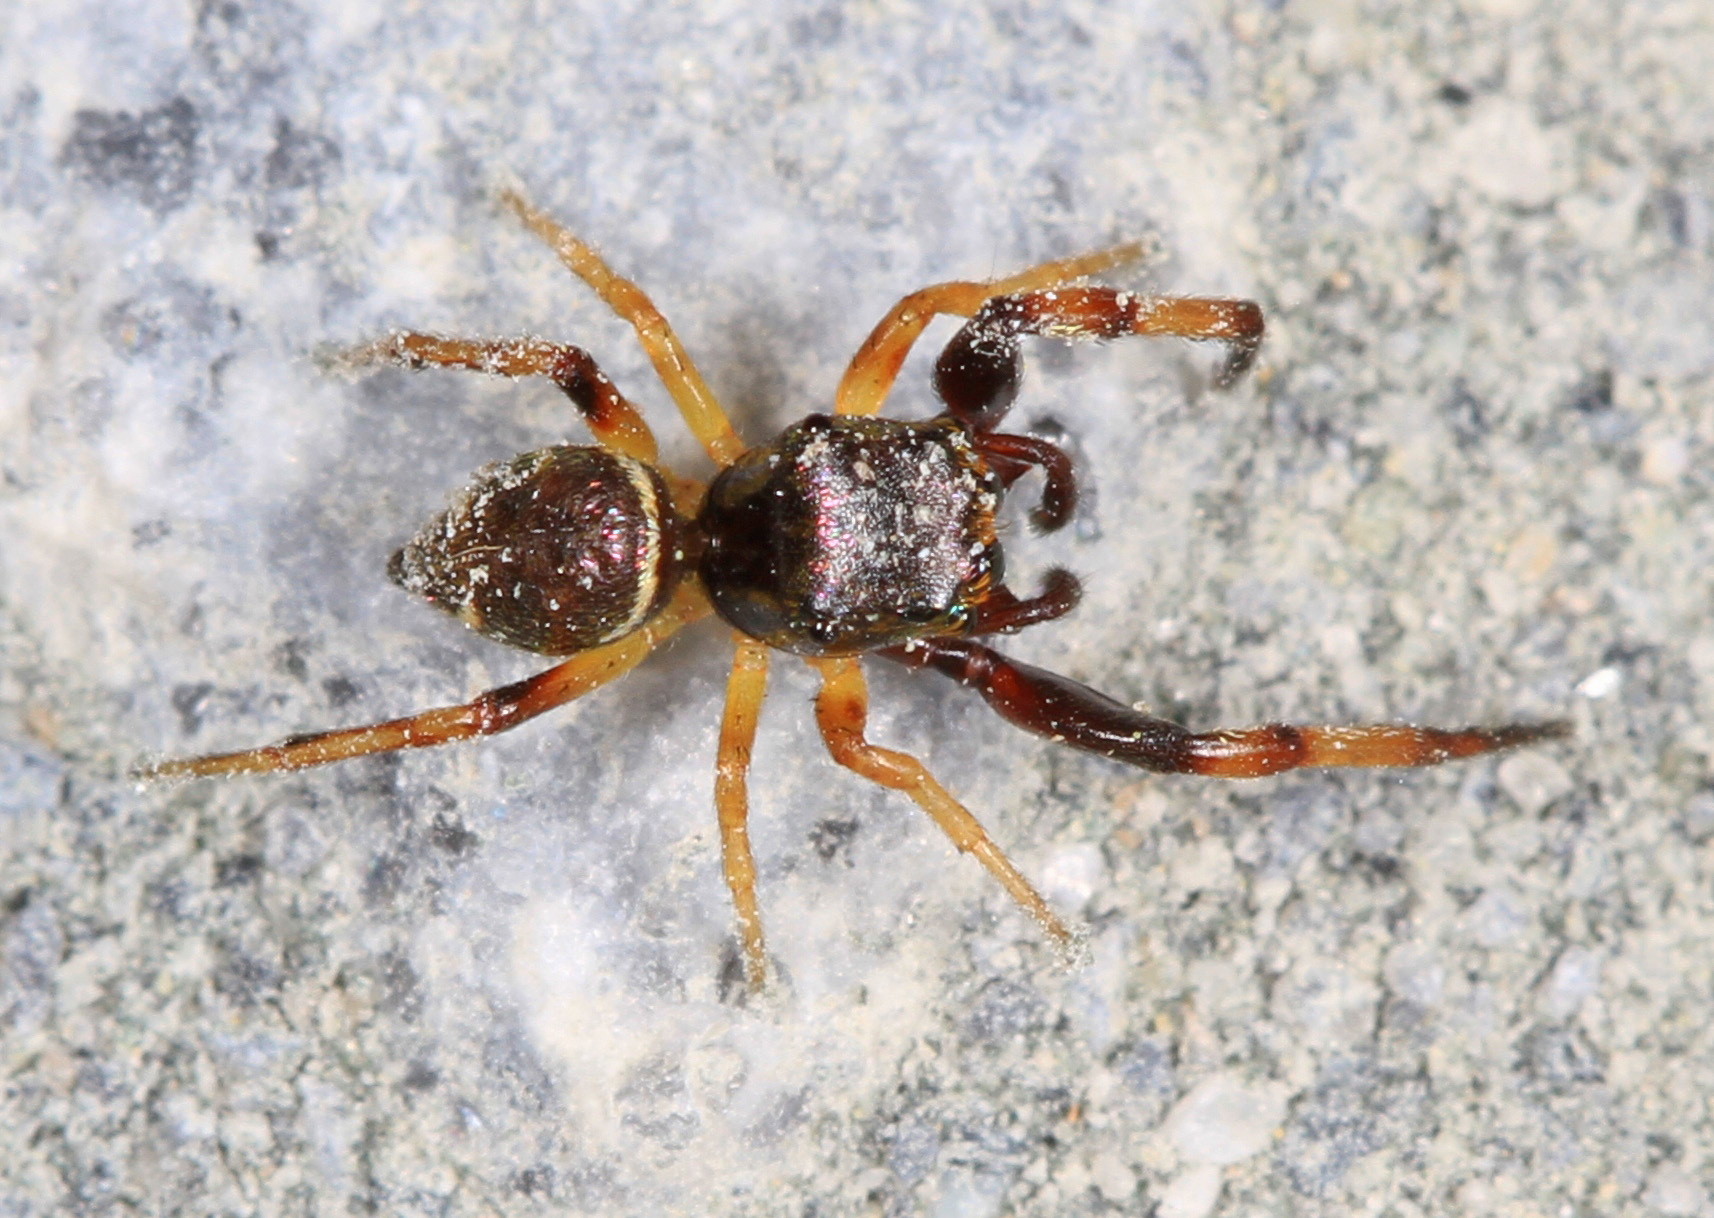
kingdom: Animalia
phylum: Arthropoda
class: Arachnida
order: Araneae
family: Salticidae
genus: Zygoballus
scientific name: Zygoballus rufipes
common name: Jumping spiders
